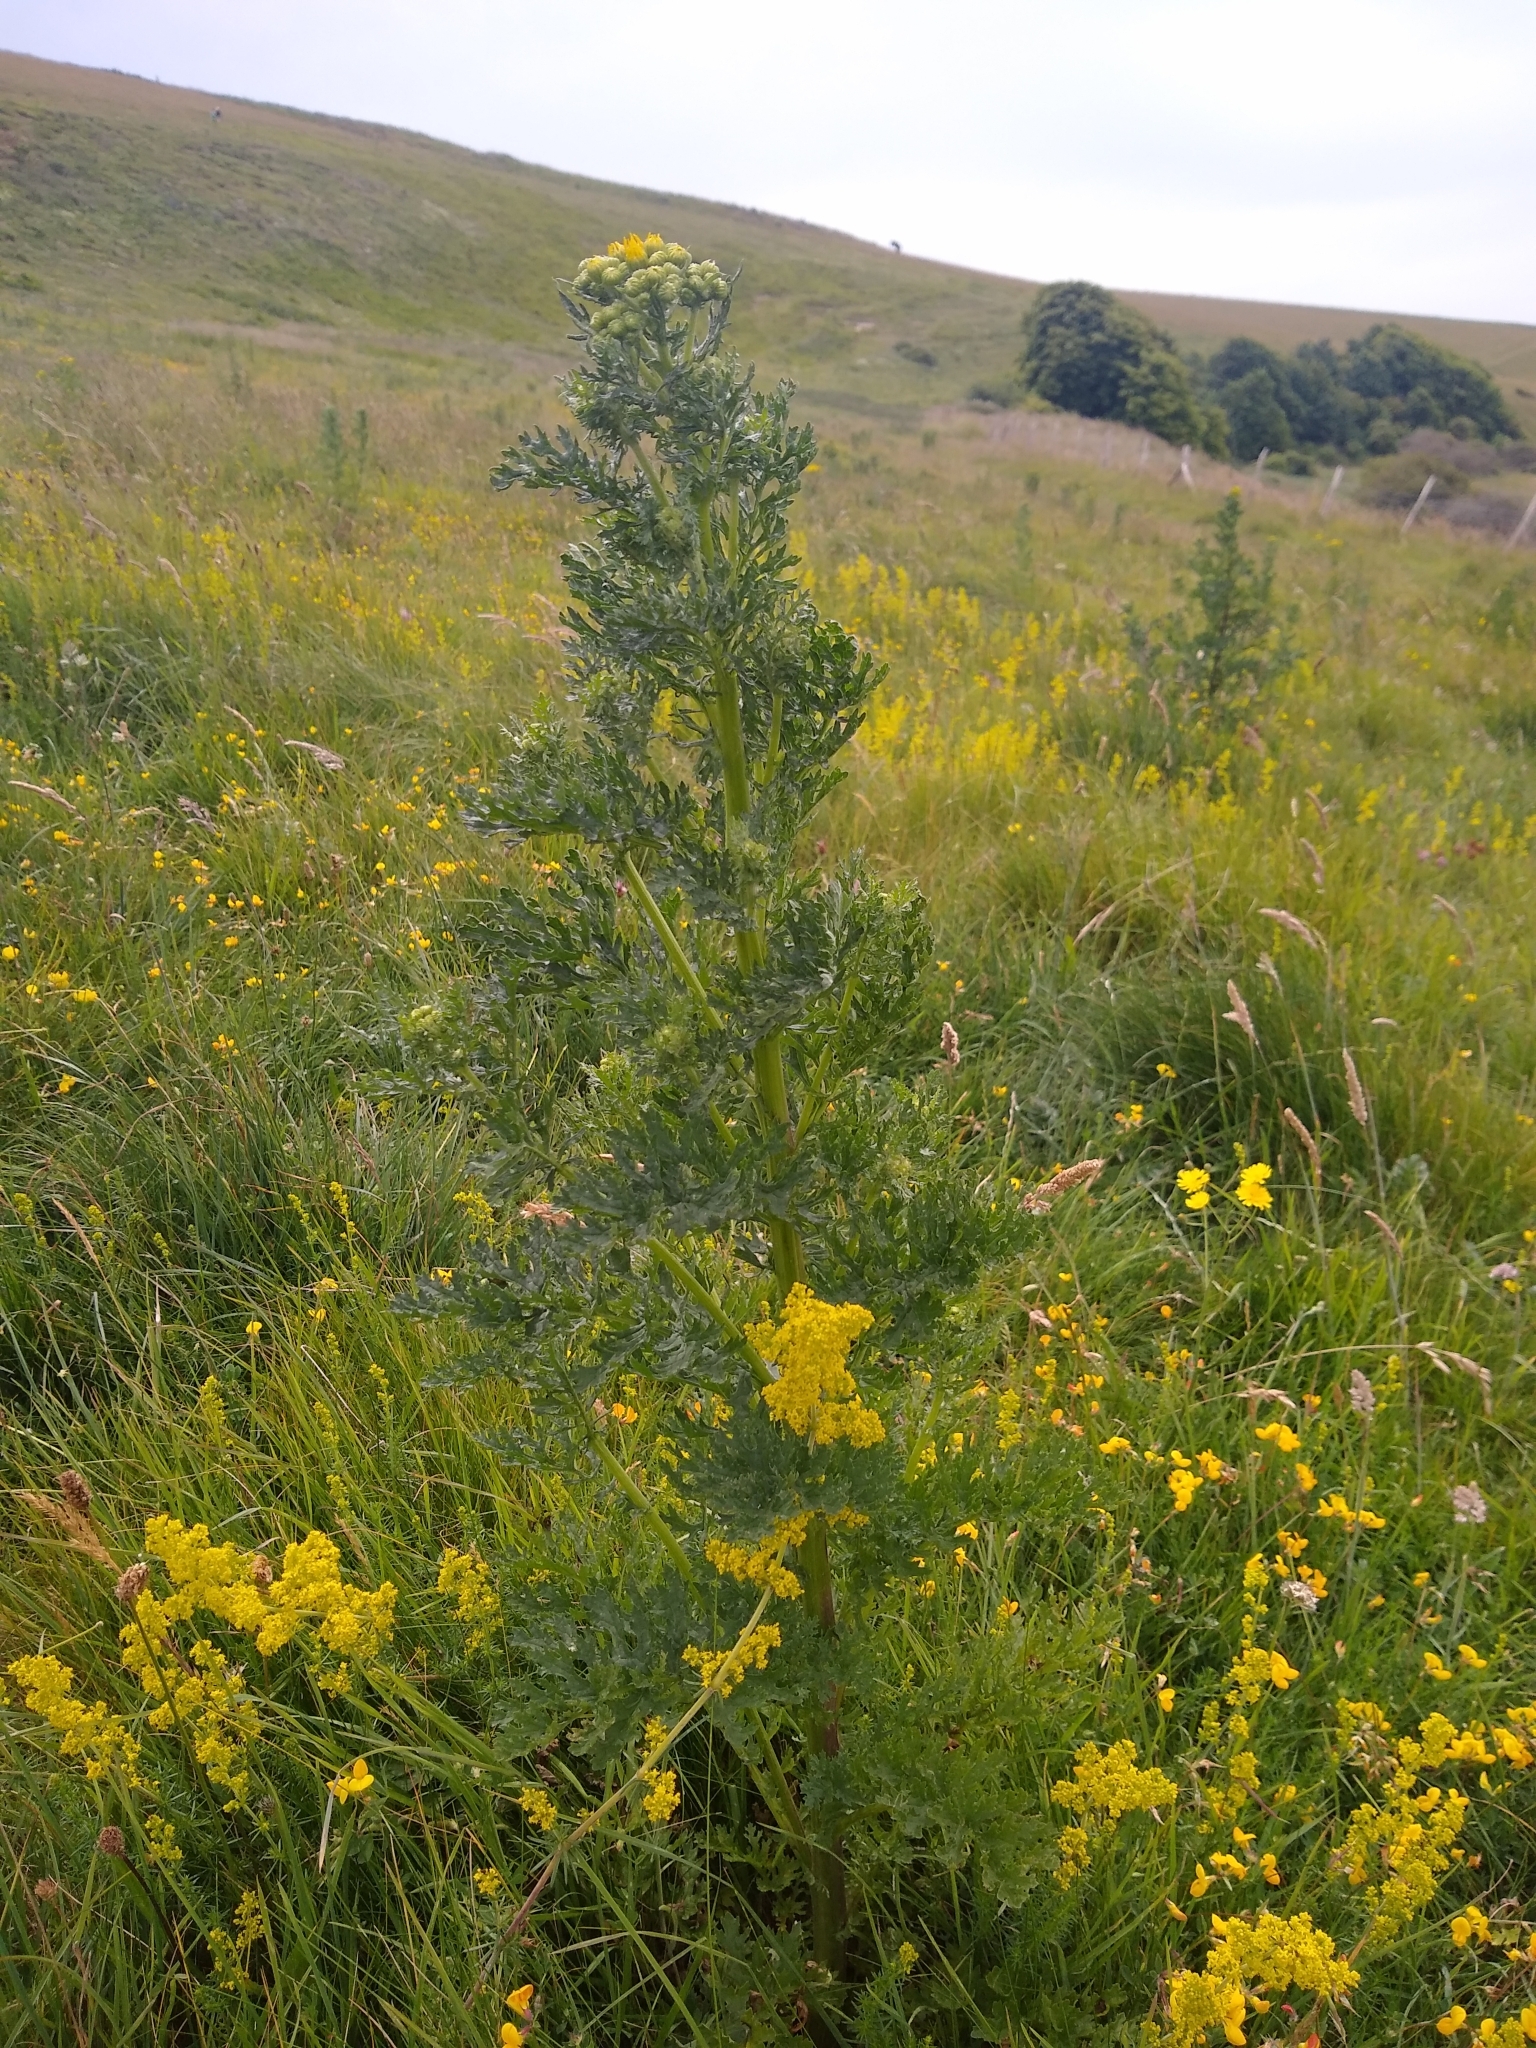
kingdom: Plantae
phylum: Tracheophyta
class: Magnoliopsida
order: Asterales
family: Asteraceae
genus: Jacobaea
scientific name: Jacobaea vulgaris
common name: Stinking willie
